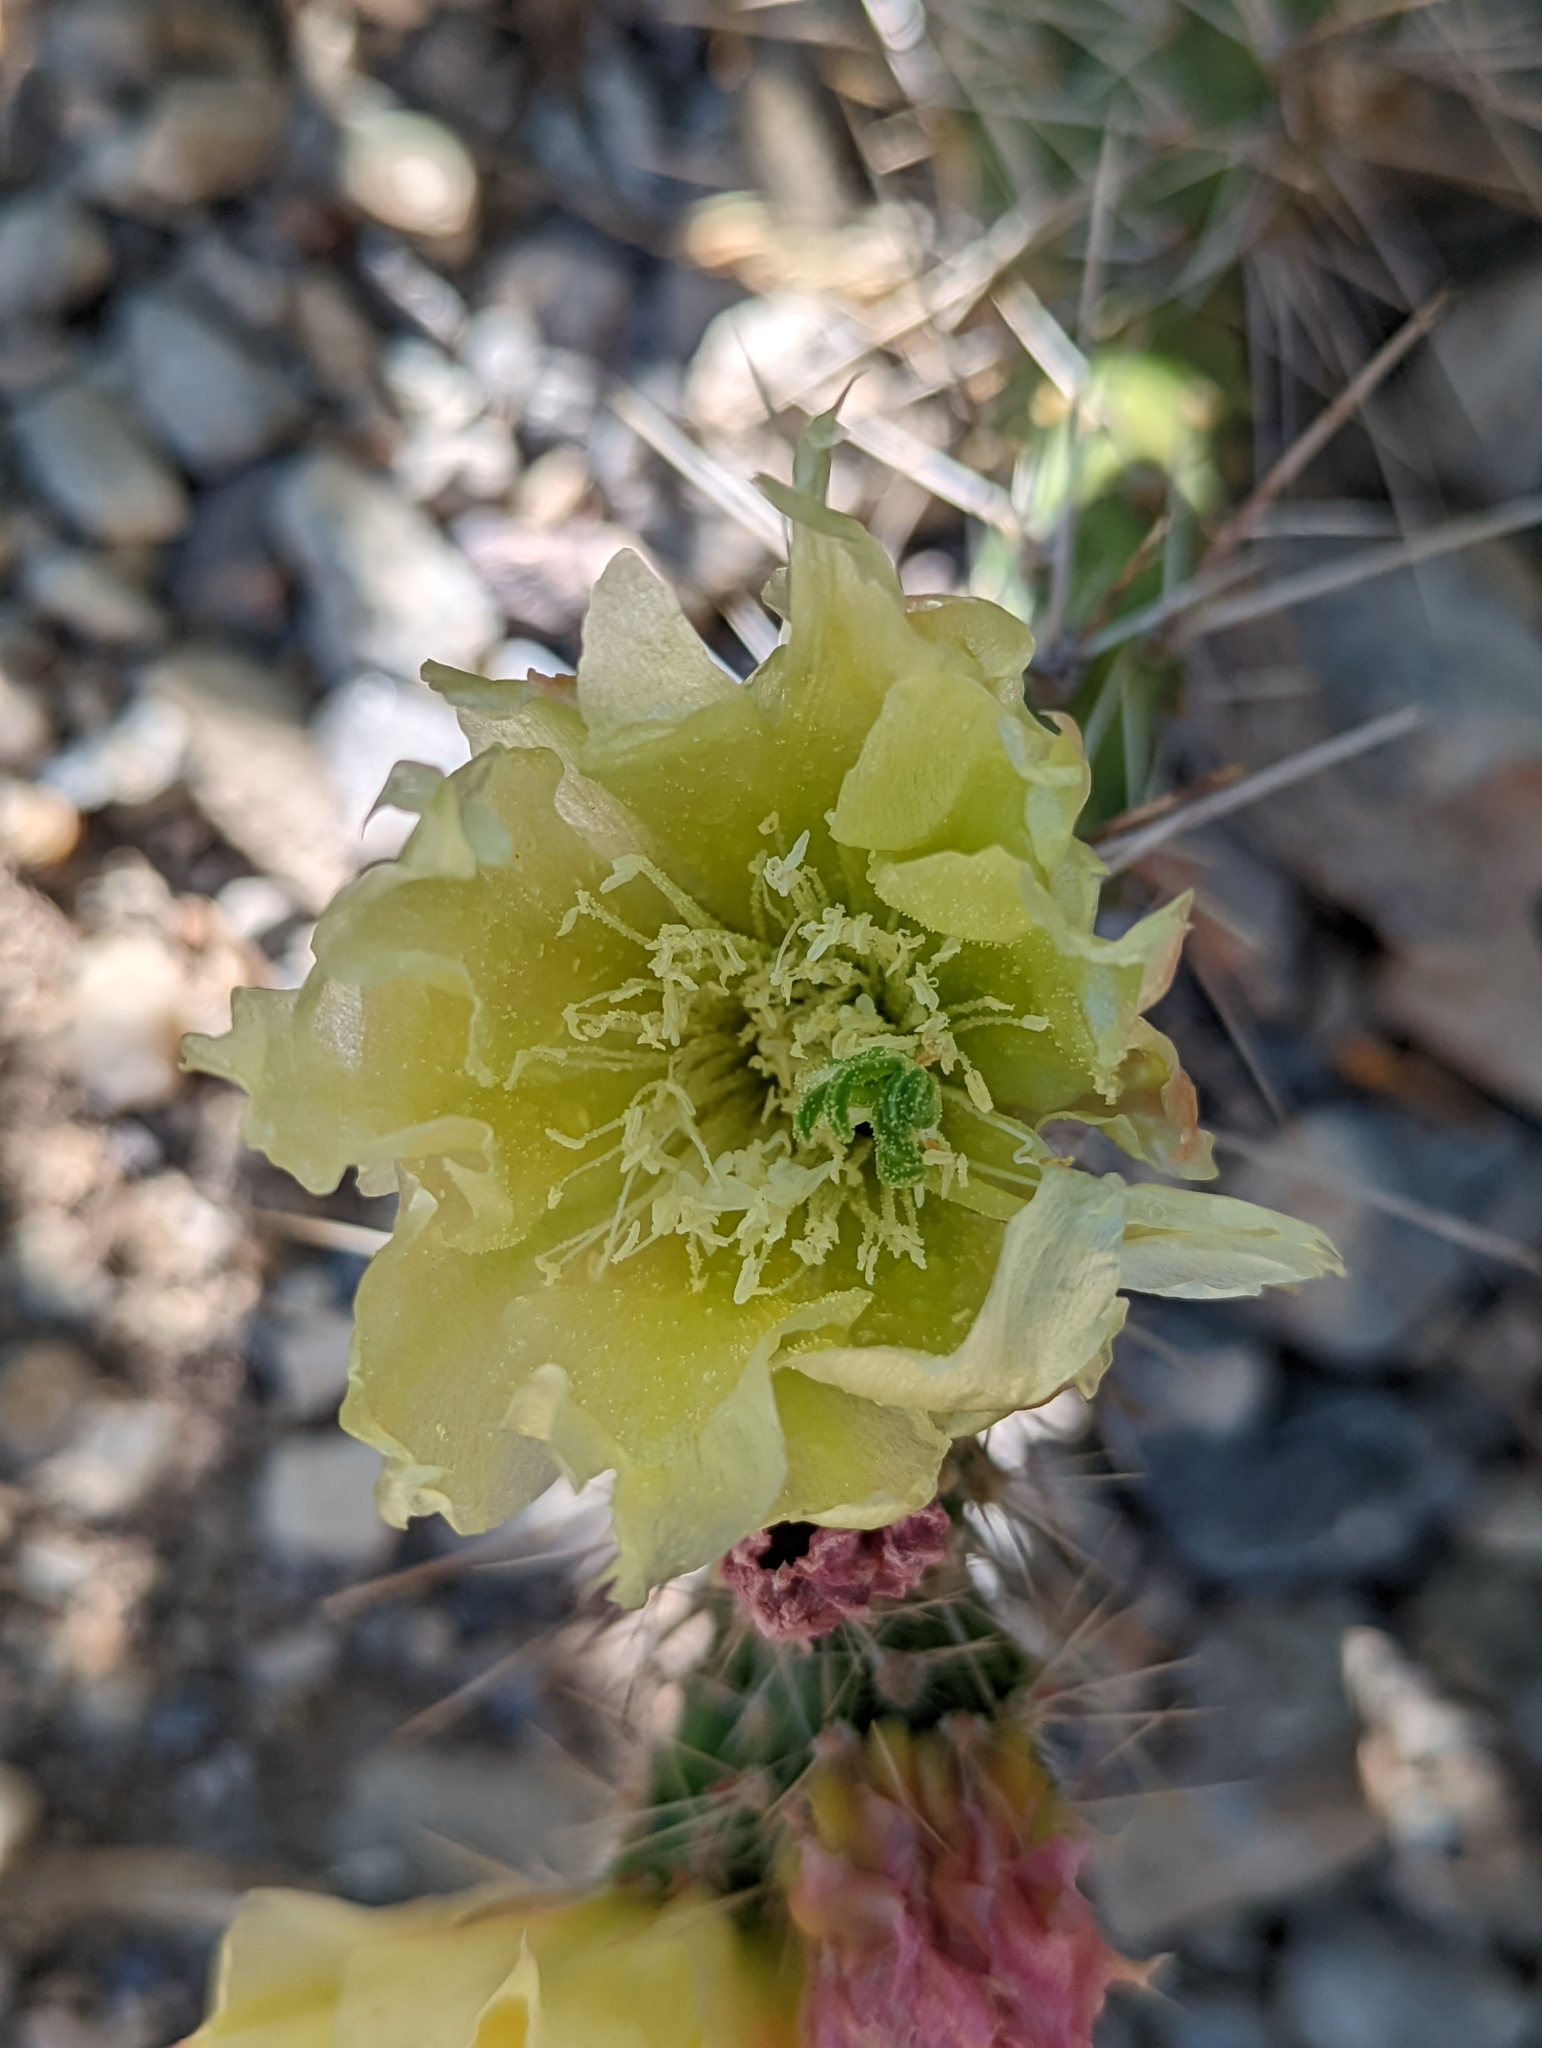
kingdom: Plantae
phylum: Tracheophyta
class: Magnoliopsida
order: Caryophyllales
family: Cactaceae
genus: Opuntia
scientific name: Opuntia polyacantha
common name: Plains prickly-pear
